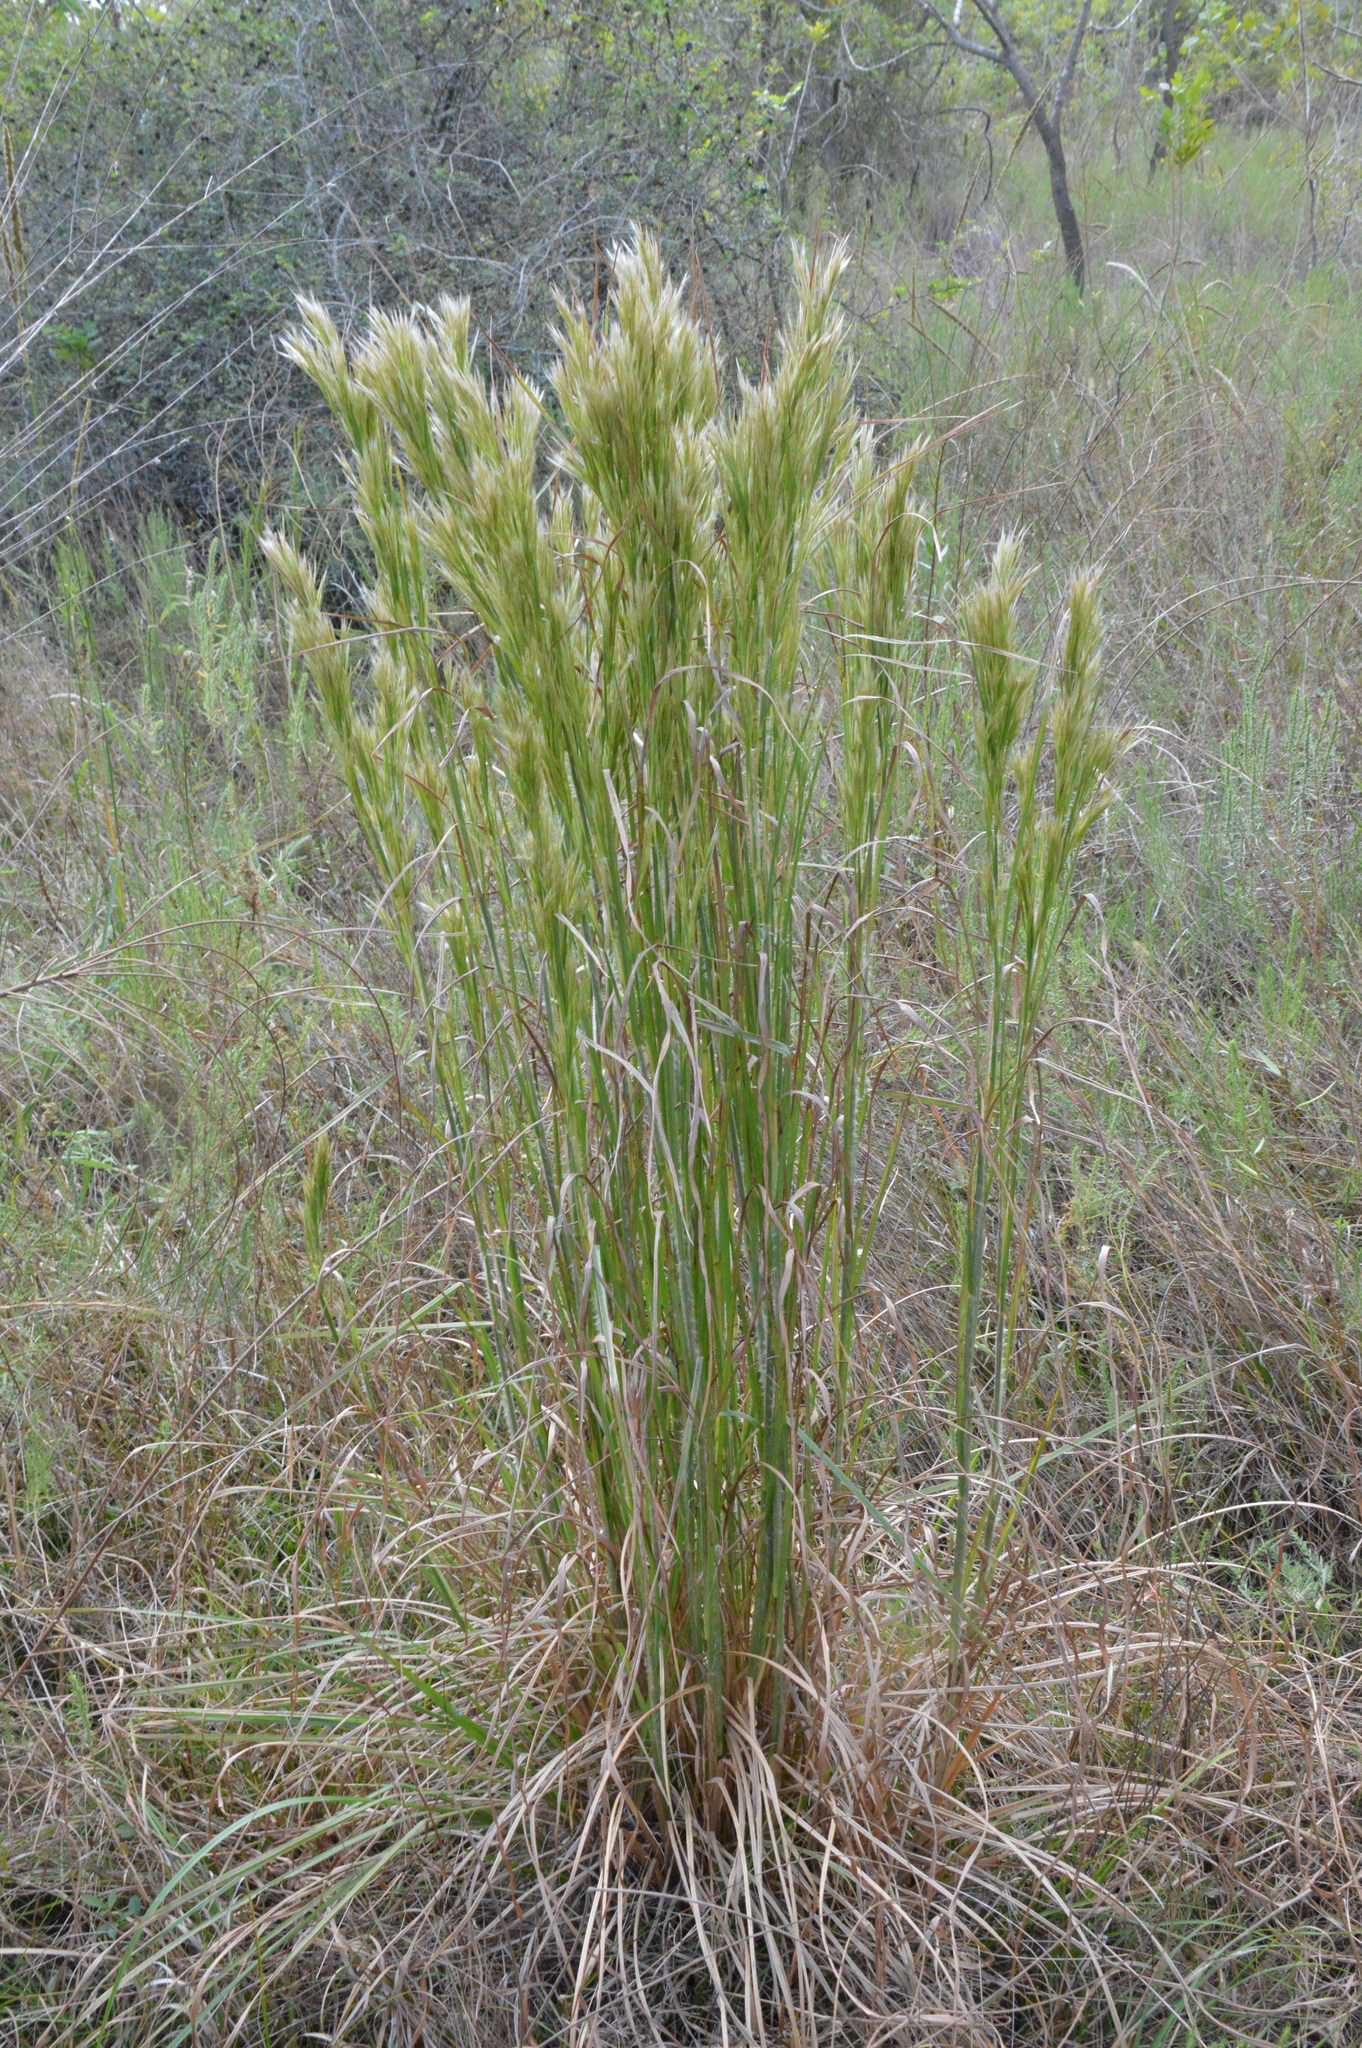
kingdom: Plantae
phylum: Tracheophyta
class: Liliopsida
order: Poales
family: Poaceae
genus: Andropogon
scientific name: Andropogon tenuispatheus
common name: Bushy bluestem
